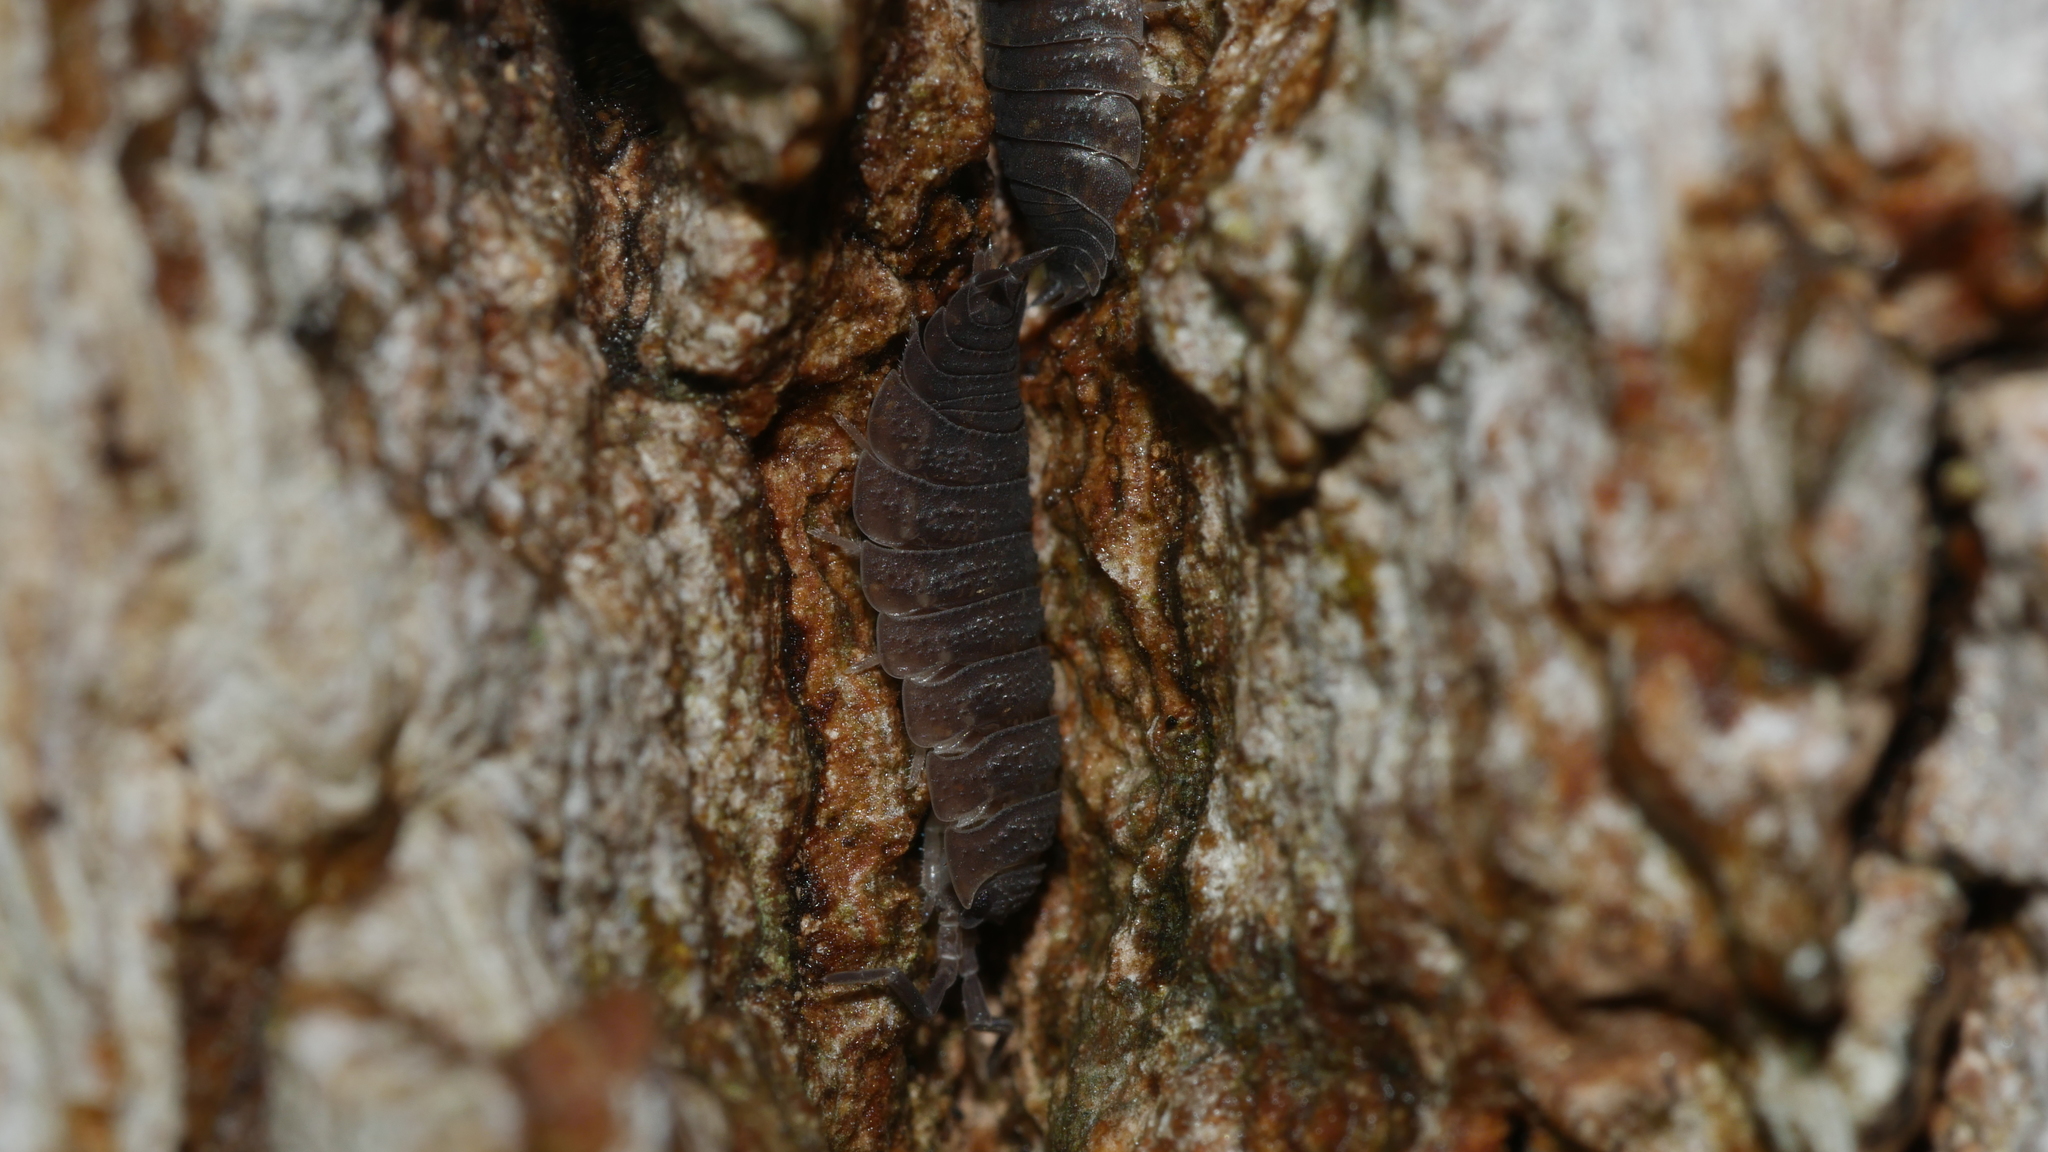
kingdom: Animalia
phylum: Arthropoda
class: Malacostraca
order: Isopoda
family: Porcellionidae
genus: Porcellio
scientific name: Porcellio scaber
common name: Common rough woodlouse
